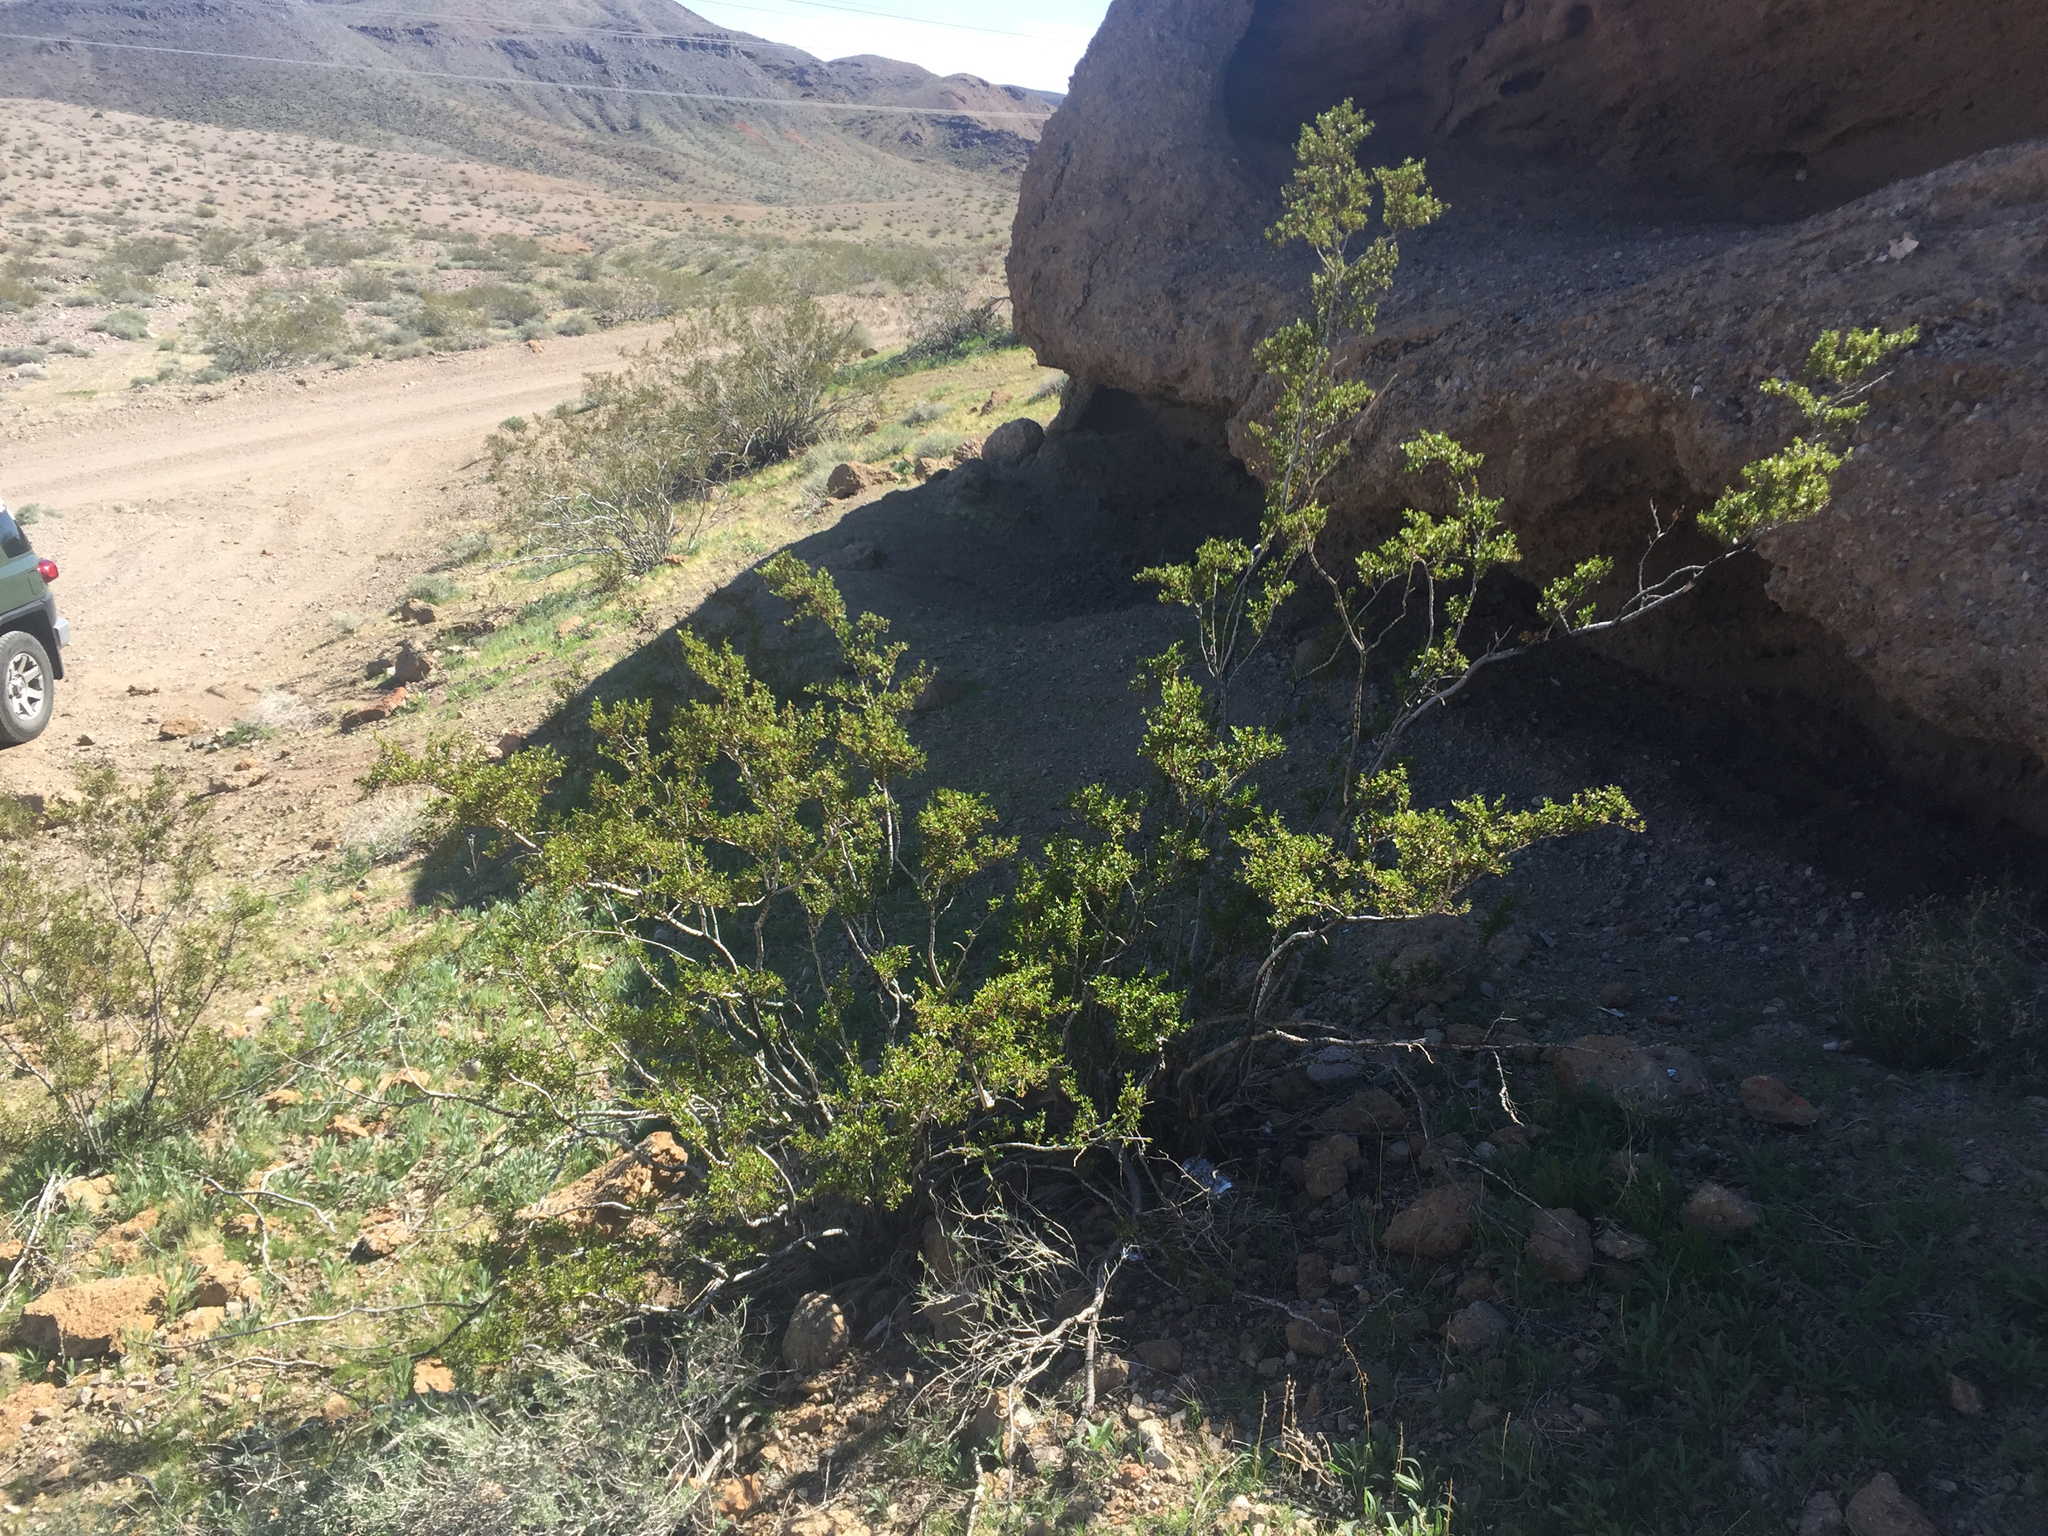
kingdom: Plantae
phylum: Tracheophyta
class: Magnoliopsida
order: Zygophyllales
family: Zygophyllaceae
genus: Larrea
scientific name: Larrea tridentata
